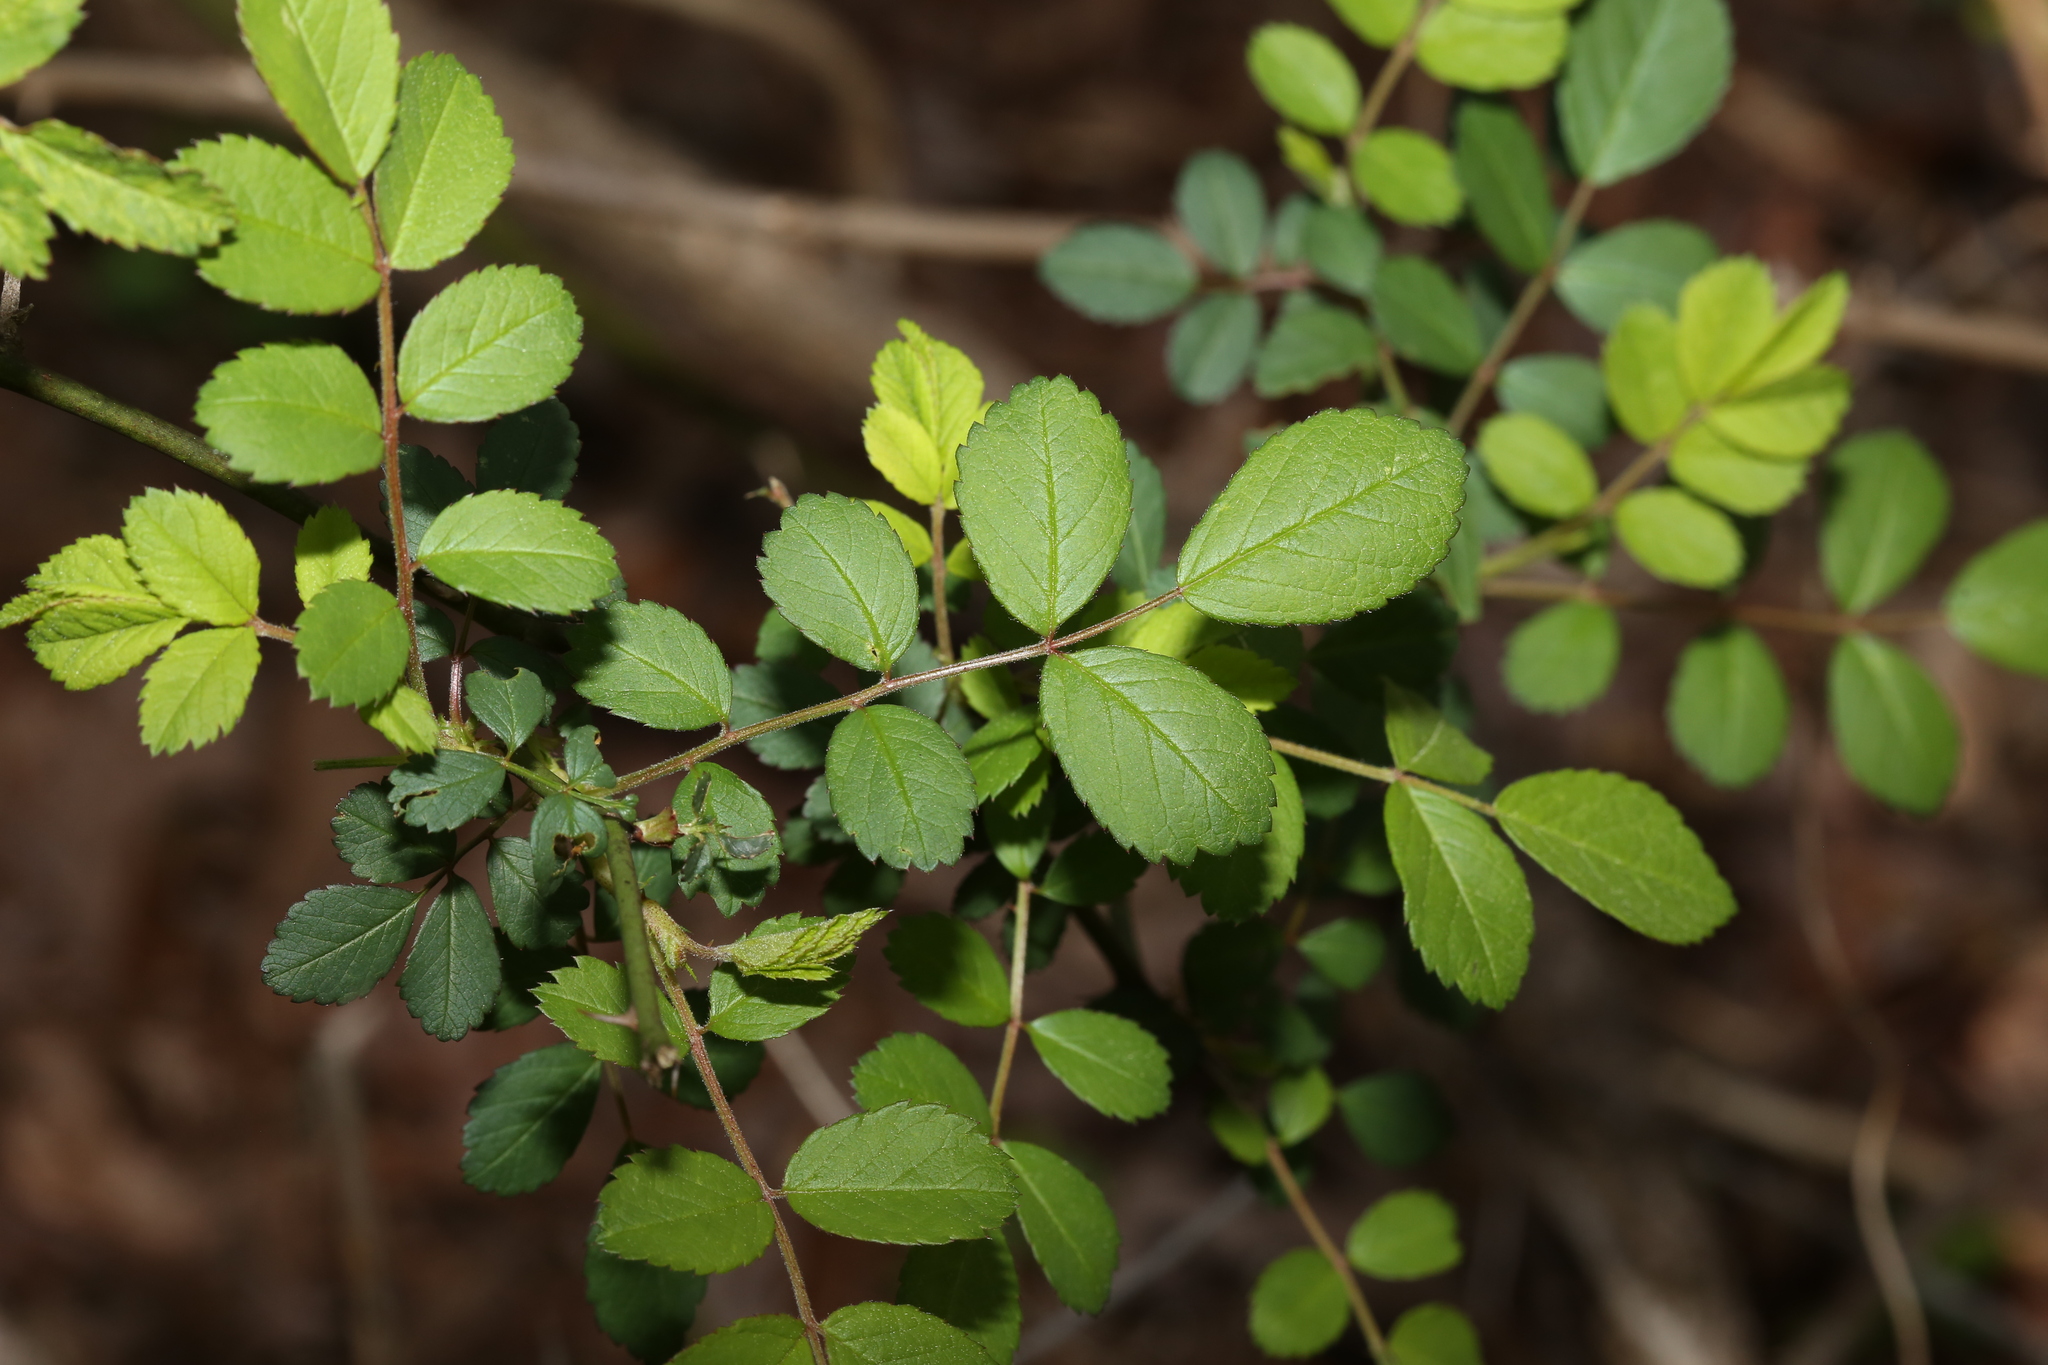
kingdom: Plantae
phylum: Tracheophyta
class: Magnoliopsida
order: Rosales
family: Rosaceae
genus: Rosa
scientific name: Rosa multiflora
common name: Multiflora rose
